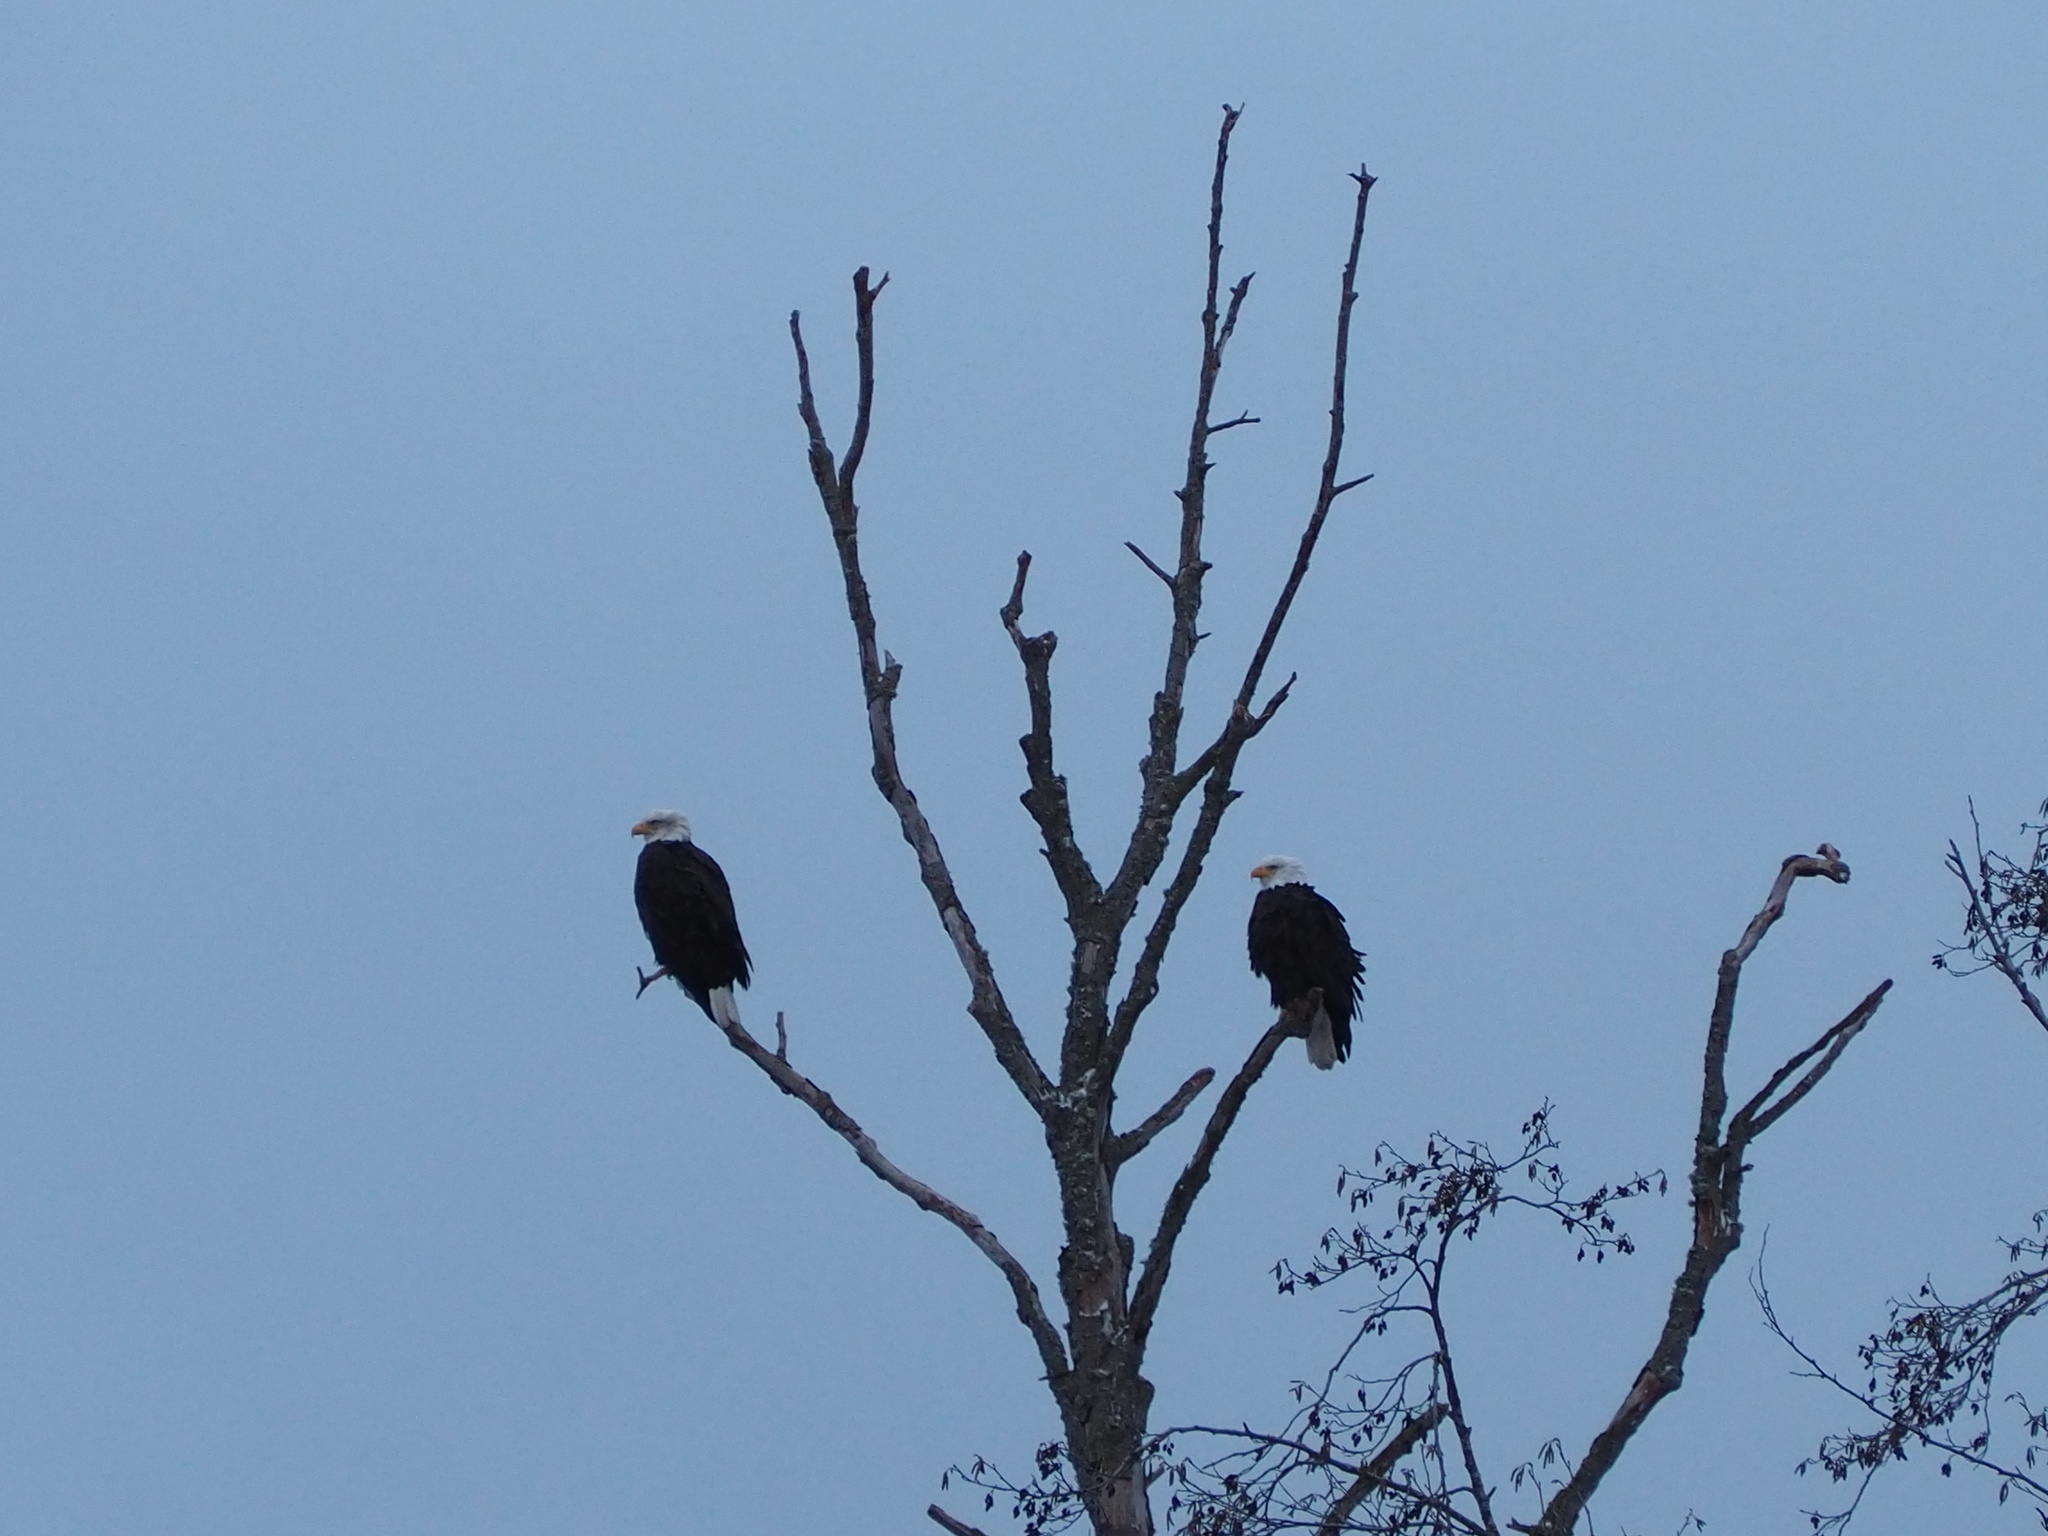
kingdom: Animalia
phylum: Chordata
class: Aves
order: Accipitriformes
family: Accipitridae
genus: Haliaeetus
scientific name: Haliaeetus leucocephalus
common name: Bald eagle
